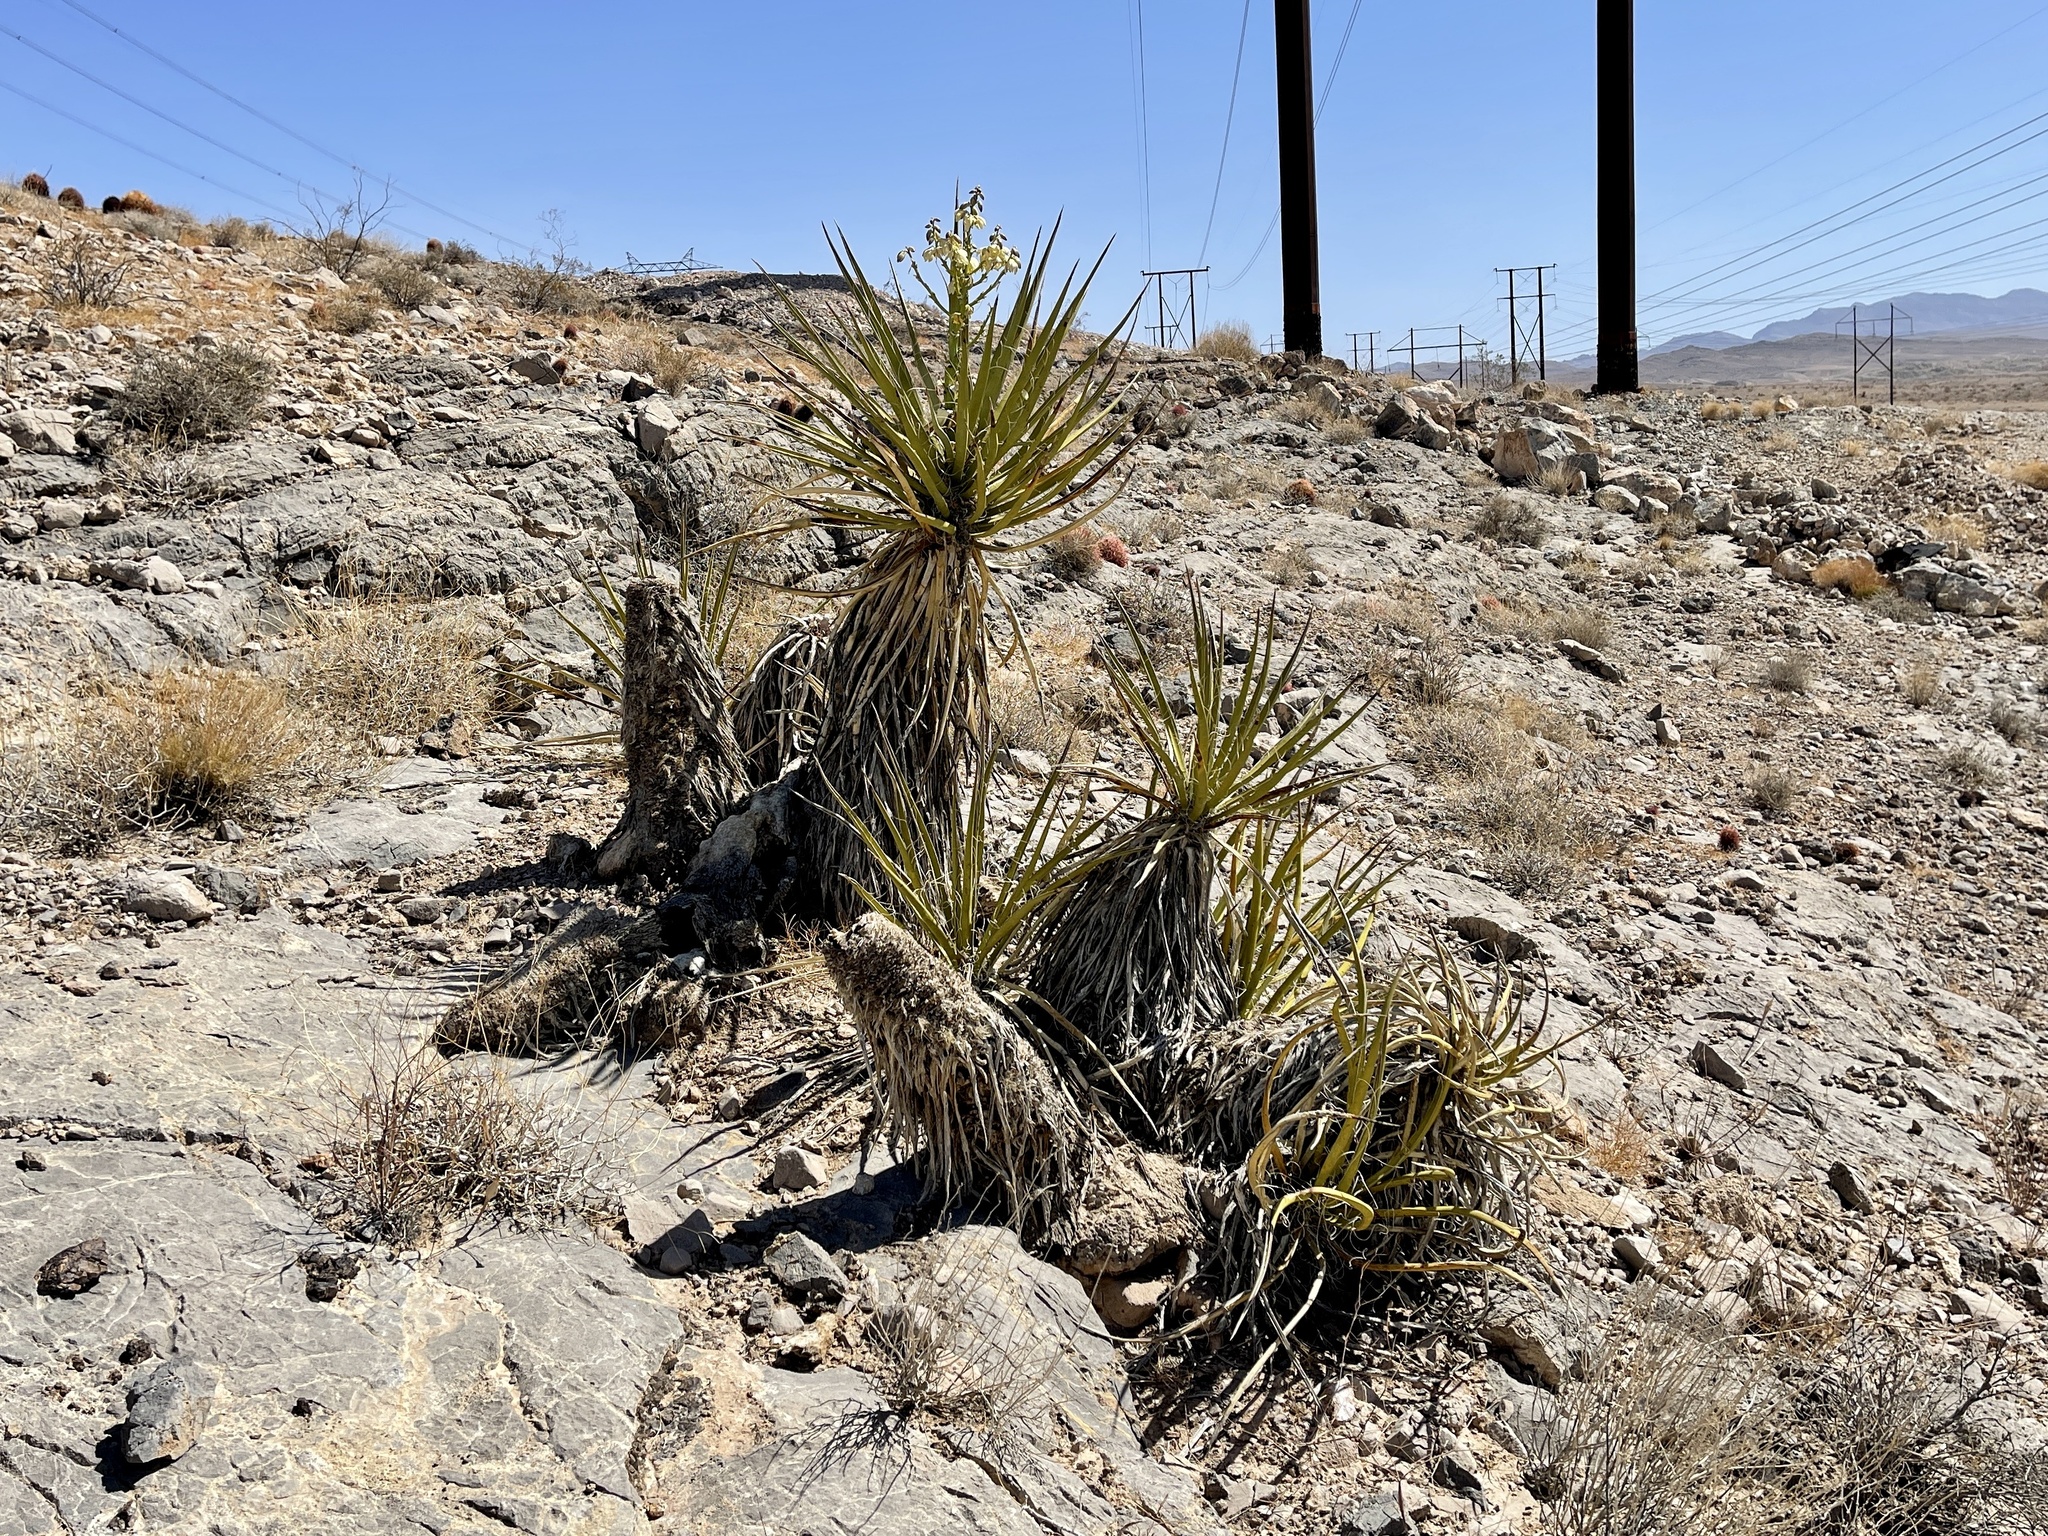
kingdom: Plantae
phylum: Tracheophyta
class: Liliopsida
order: Asparagales
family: Asparagaceae
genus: Yucca
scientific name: Yucca schidigera
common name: Mojave yucca
